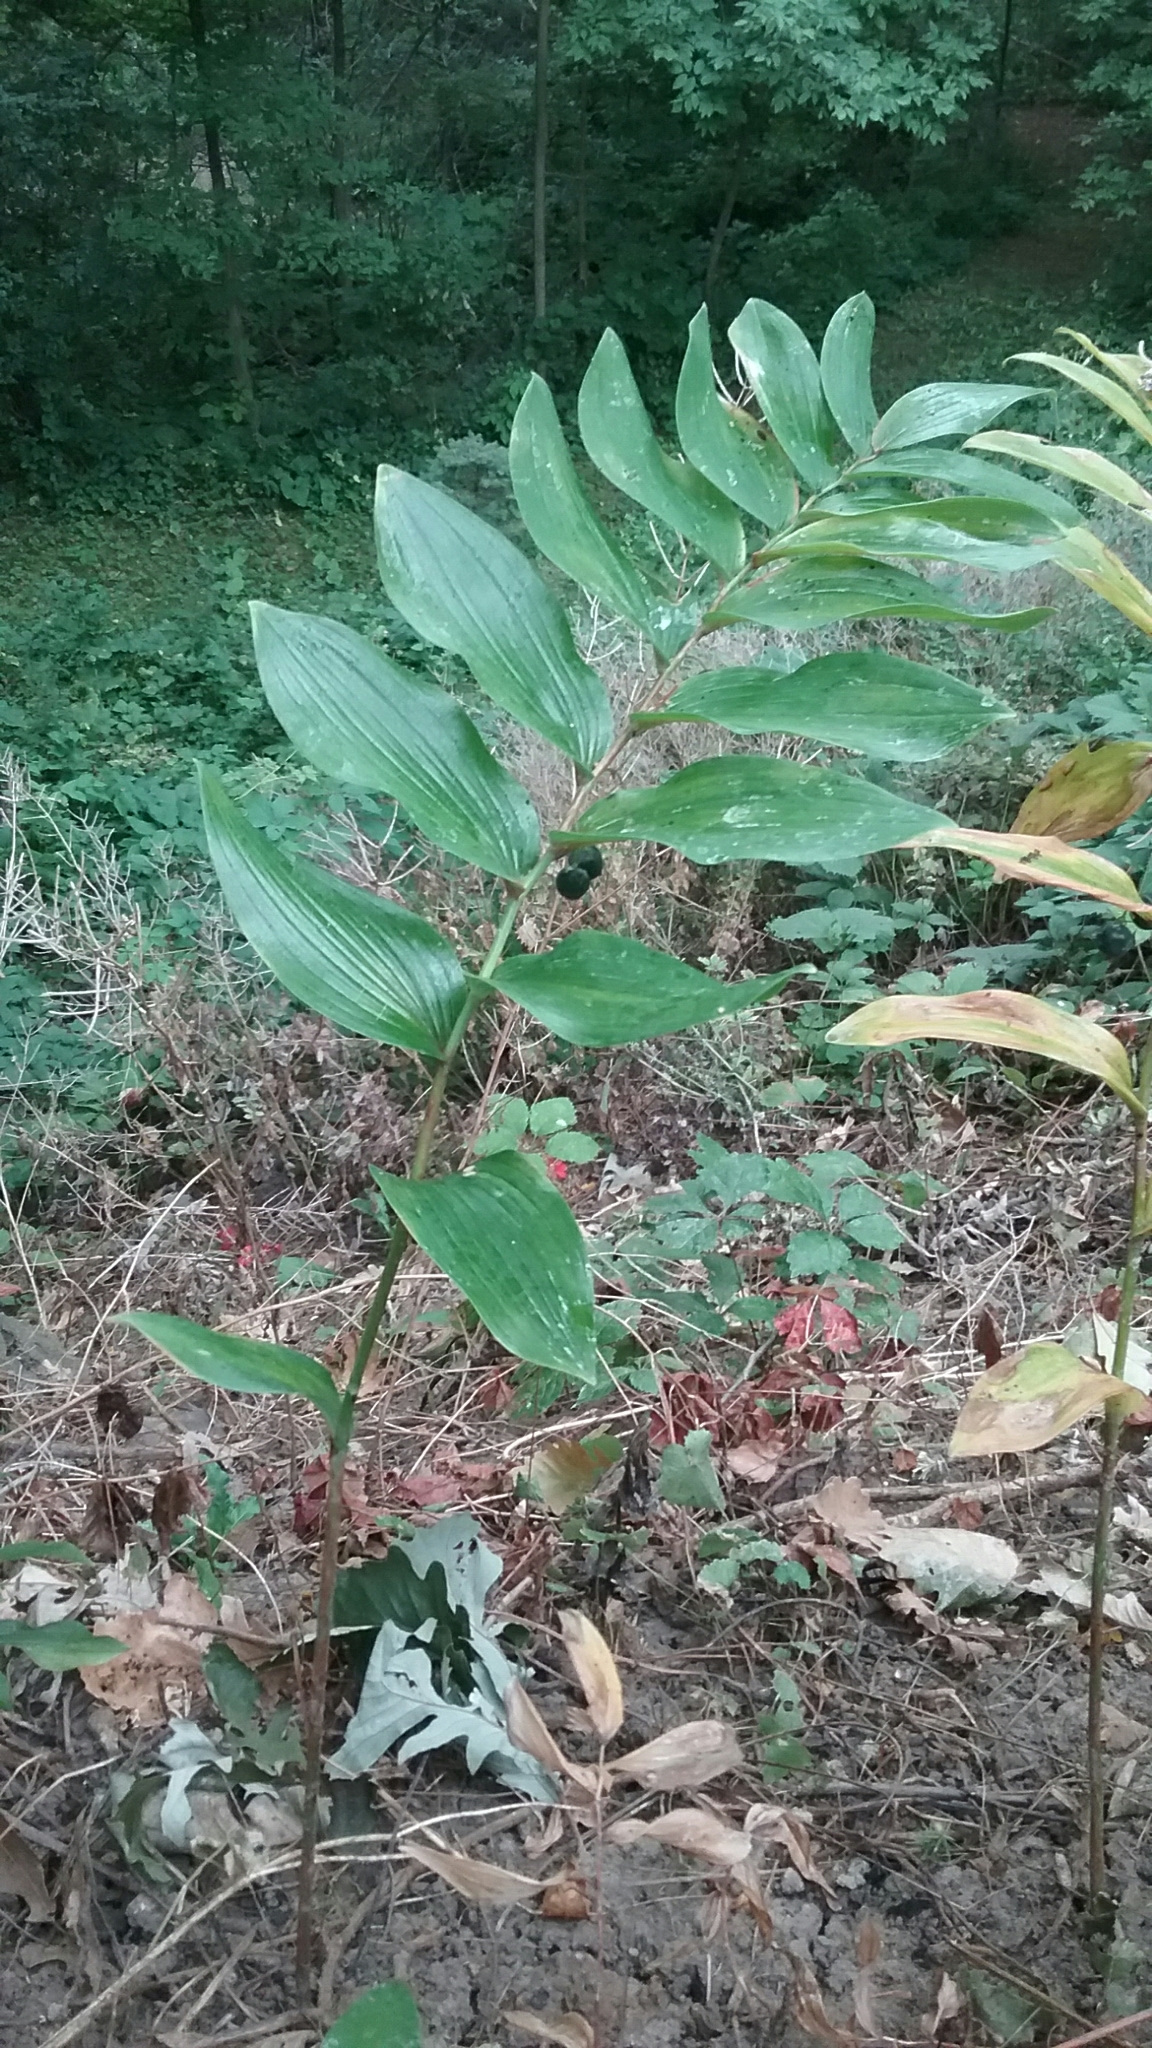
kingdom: Plantae
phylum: Tracheophyta
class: Liliopsida
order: Asparagales
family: Asparagaceae
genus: Polygonatum
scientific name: Polygonatum biflorum
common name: American solomon's-seal
